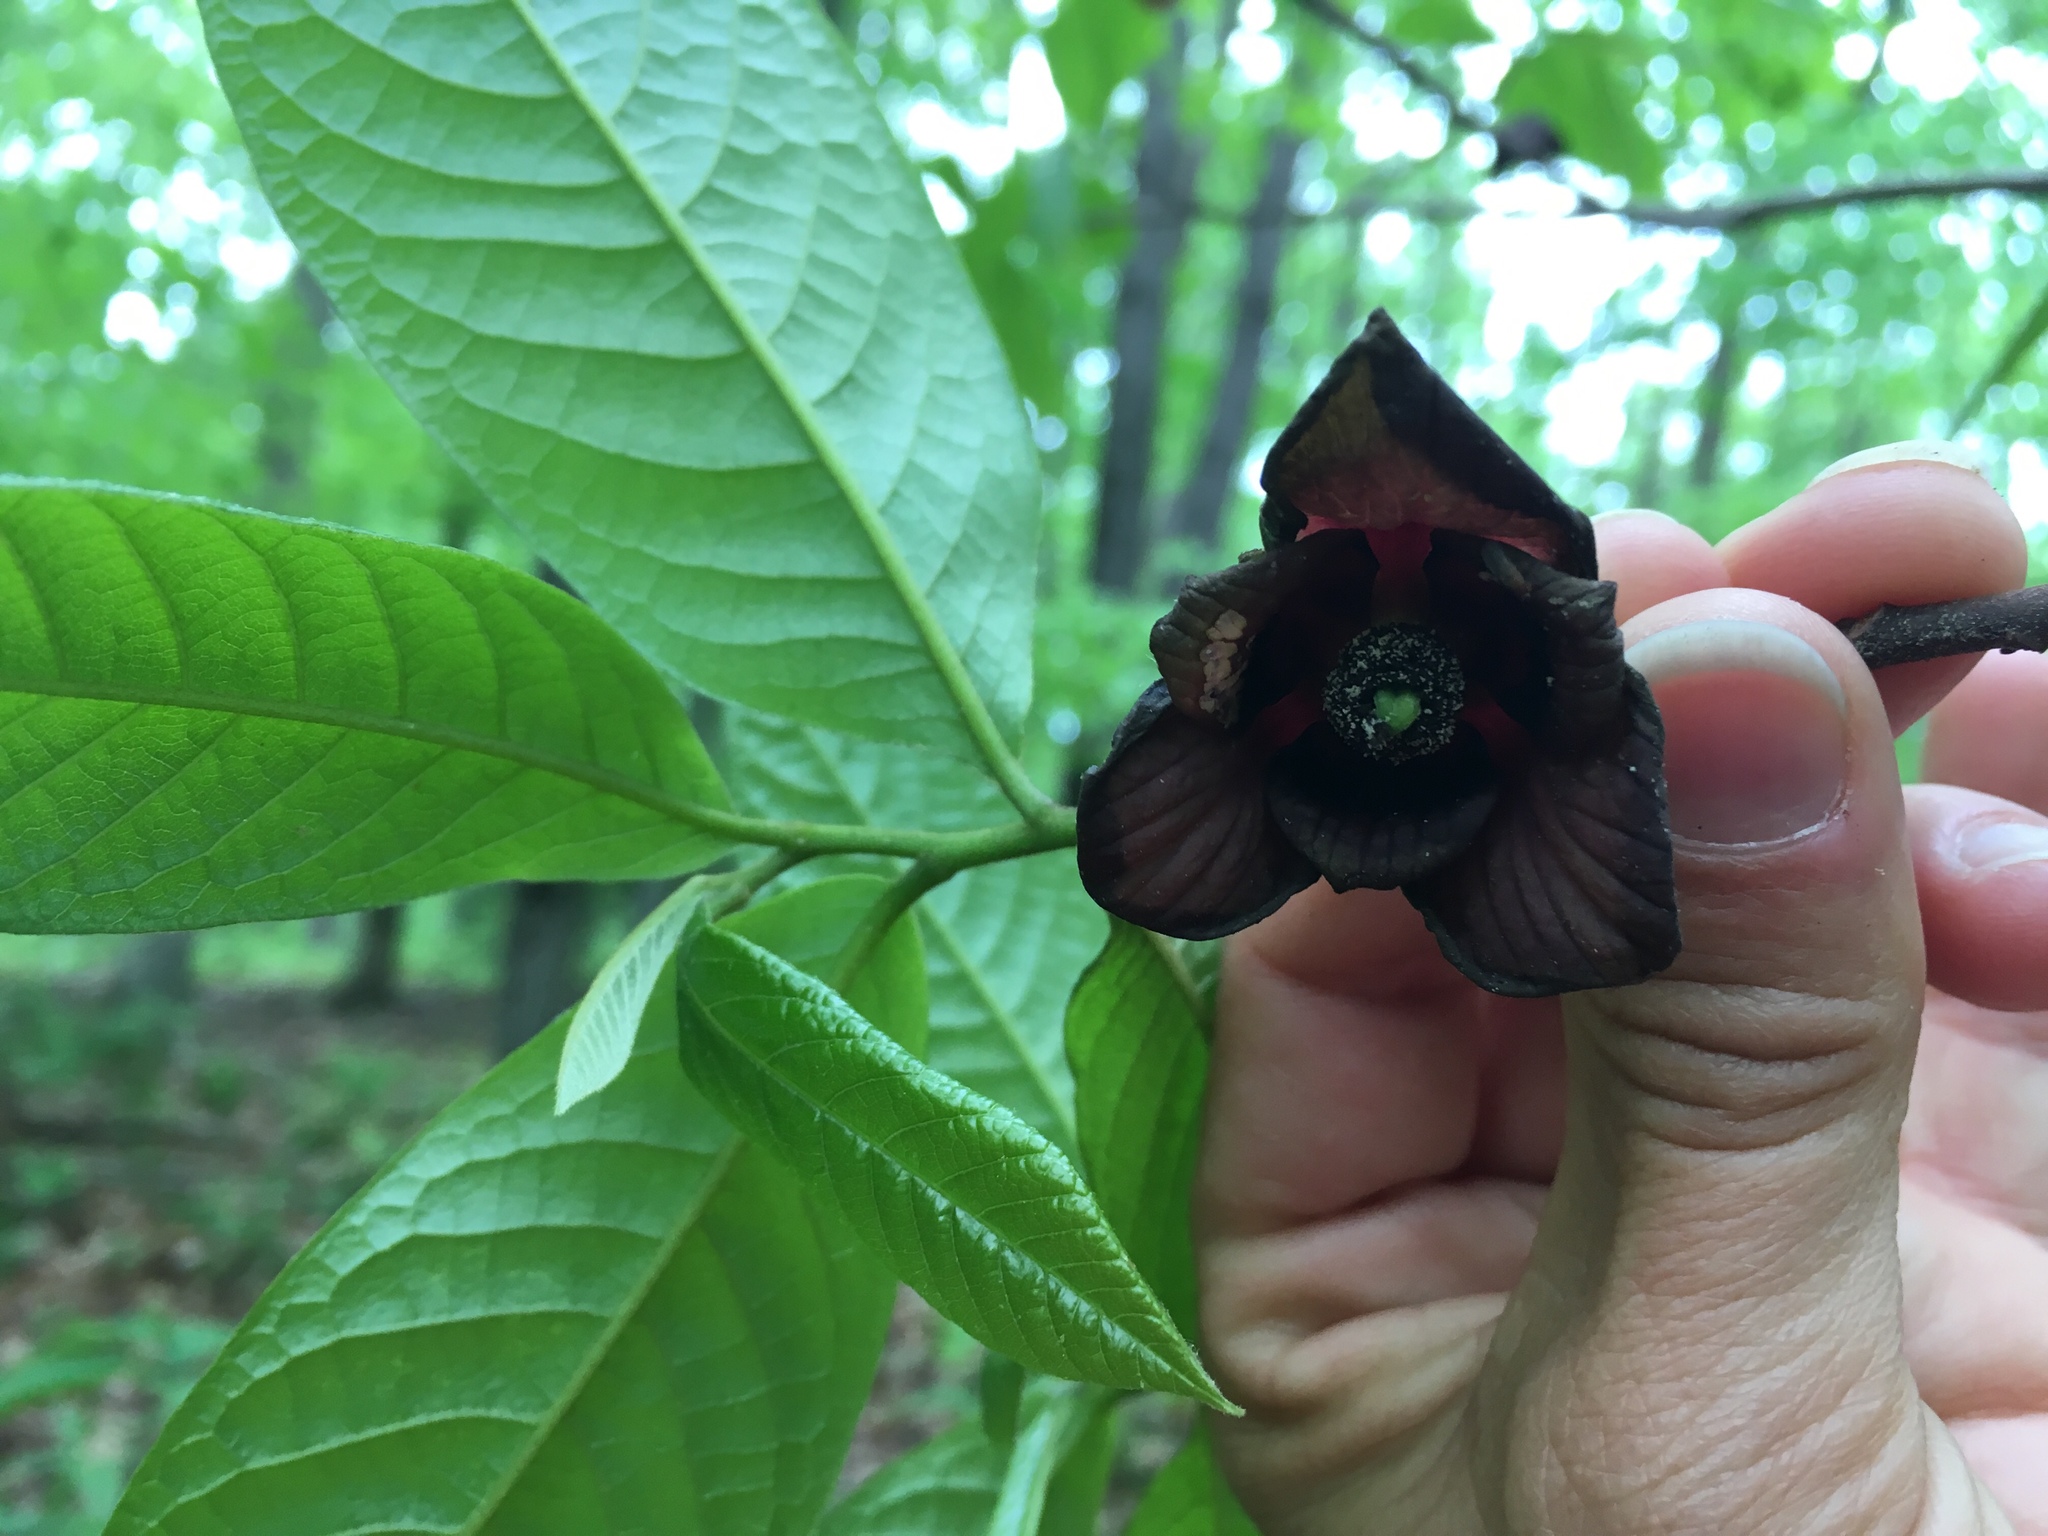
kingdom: Plantae
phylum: Tracheophyta
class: Magnoliopsida
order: Magnoliales
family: Annonaceae
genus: Asimina
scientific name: Asimina triloba
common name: Dog-banana
